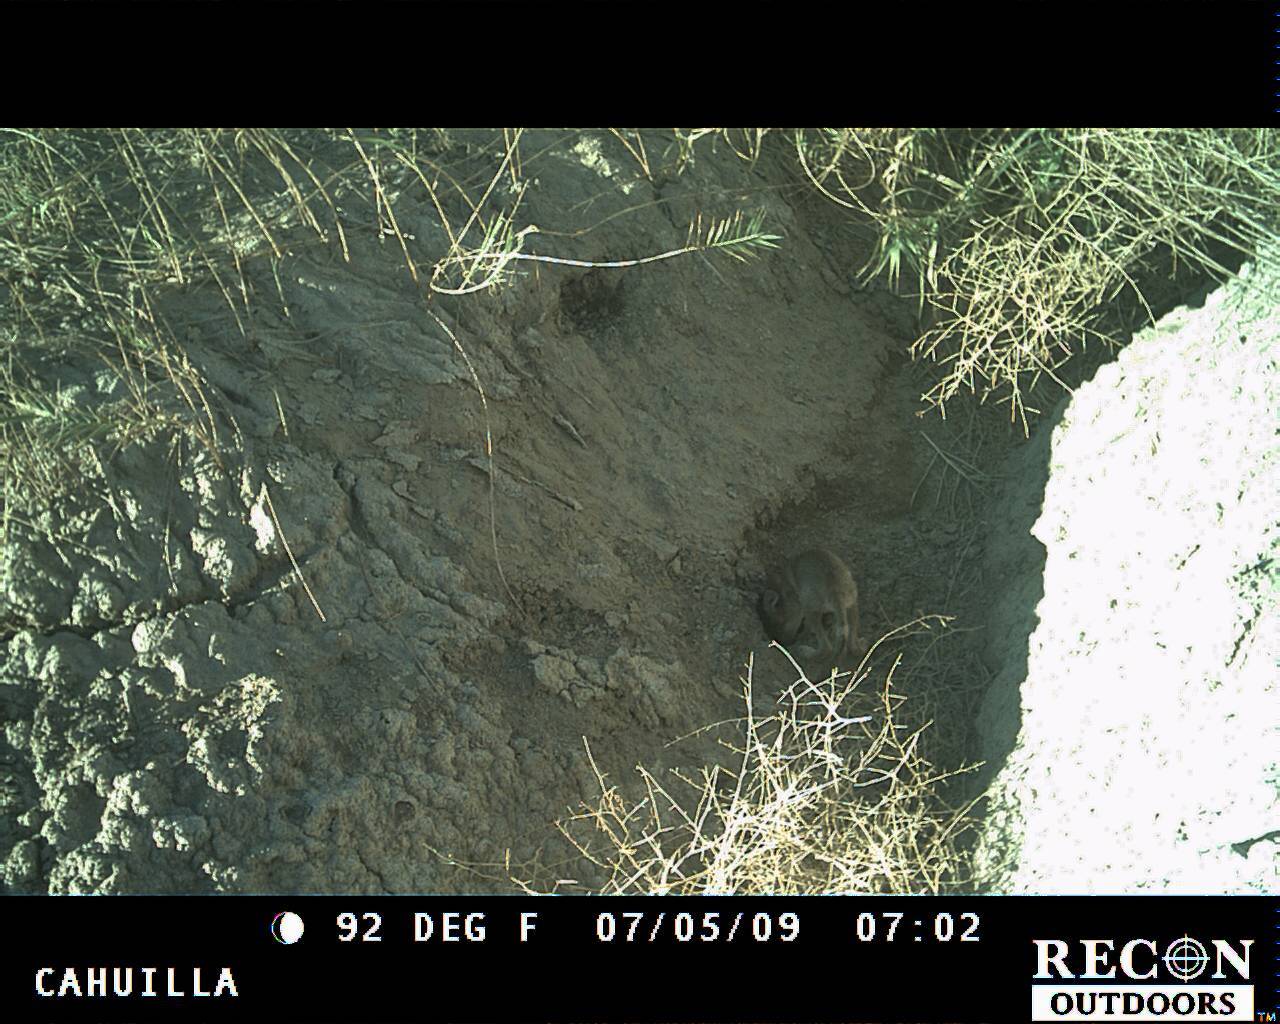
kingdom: Animalia
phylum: Chordata
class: Mammalia
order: Carnivora
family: Canidae
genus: Canis
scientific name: Canis latrans
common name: Coyote
